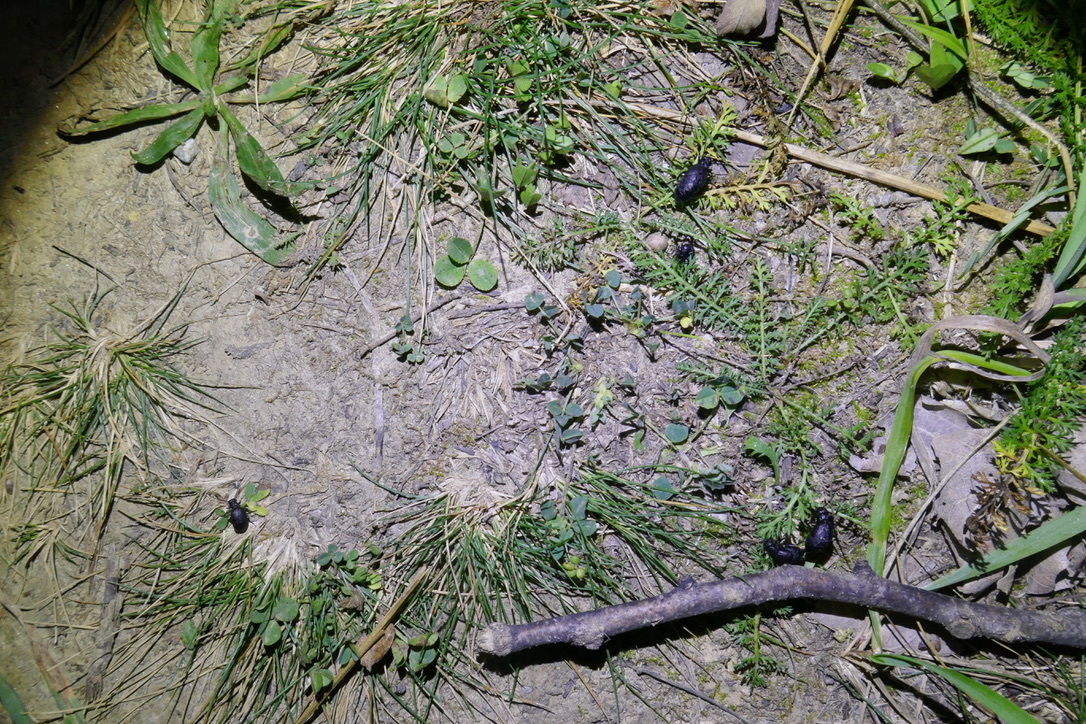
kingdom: Animalia
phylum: Arthropoda
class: Insecta
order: Coleoptera
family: Meloidae
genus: Meloe
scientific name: Meloe rugosus
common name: Rugged oil-beetle
